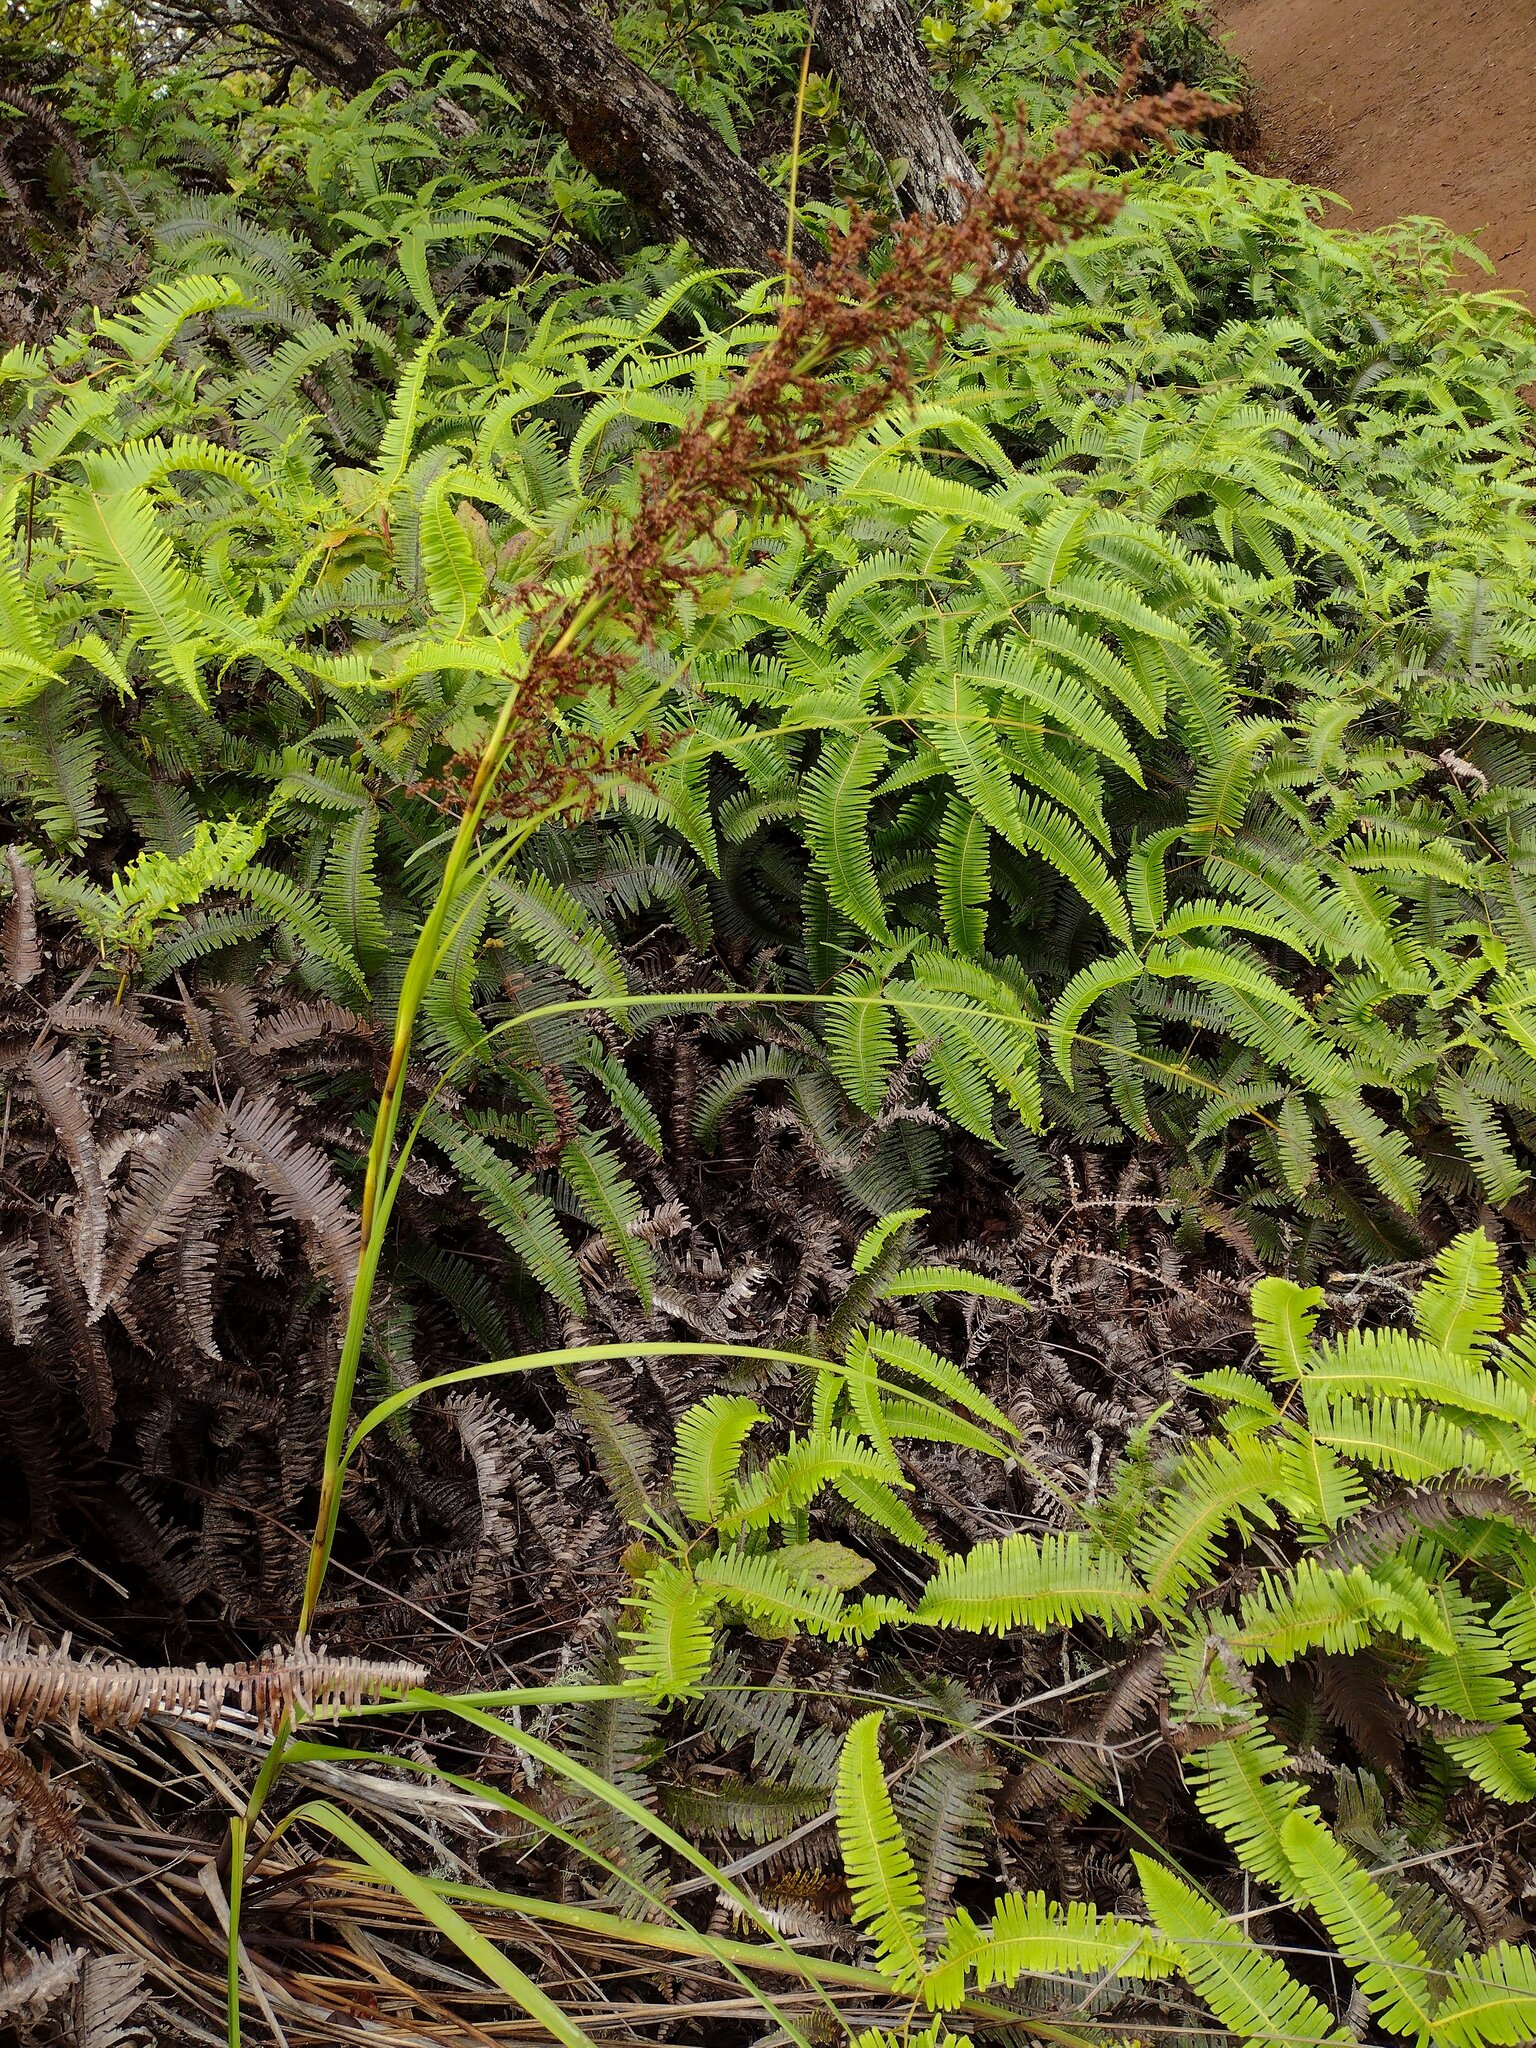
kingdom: Plantae
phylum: Tracheophyta
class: Liliopsida
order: Poales
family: Cyperaceae
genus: Gahnia
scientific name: Gahnia vitiensis
